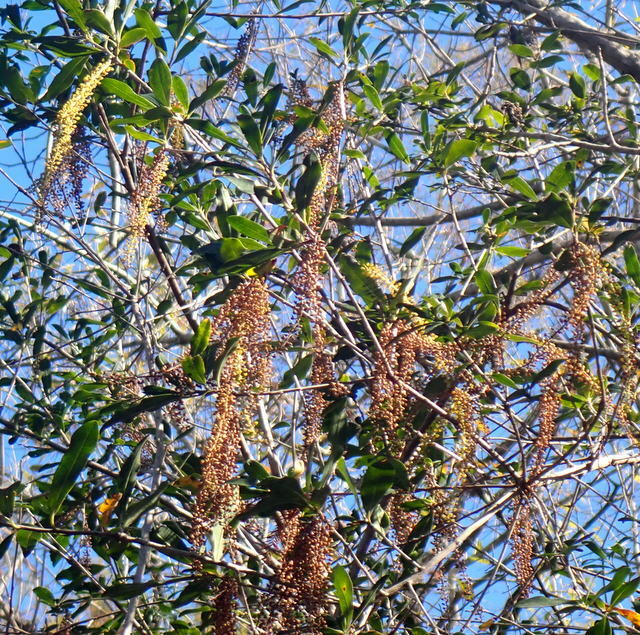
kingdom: Plantae
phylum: Tracheophyta
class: Magnoliopsida
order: Ericales
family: Cyrillaceae
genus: Cyrilla
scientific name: Cyrilla racemiflora
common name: Black titi
